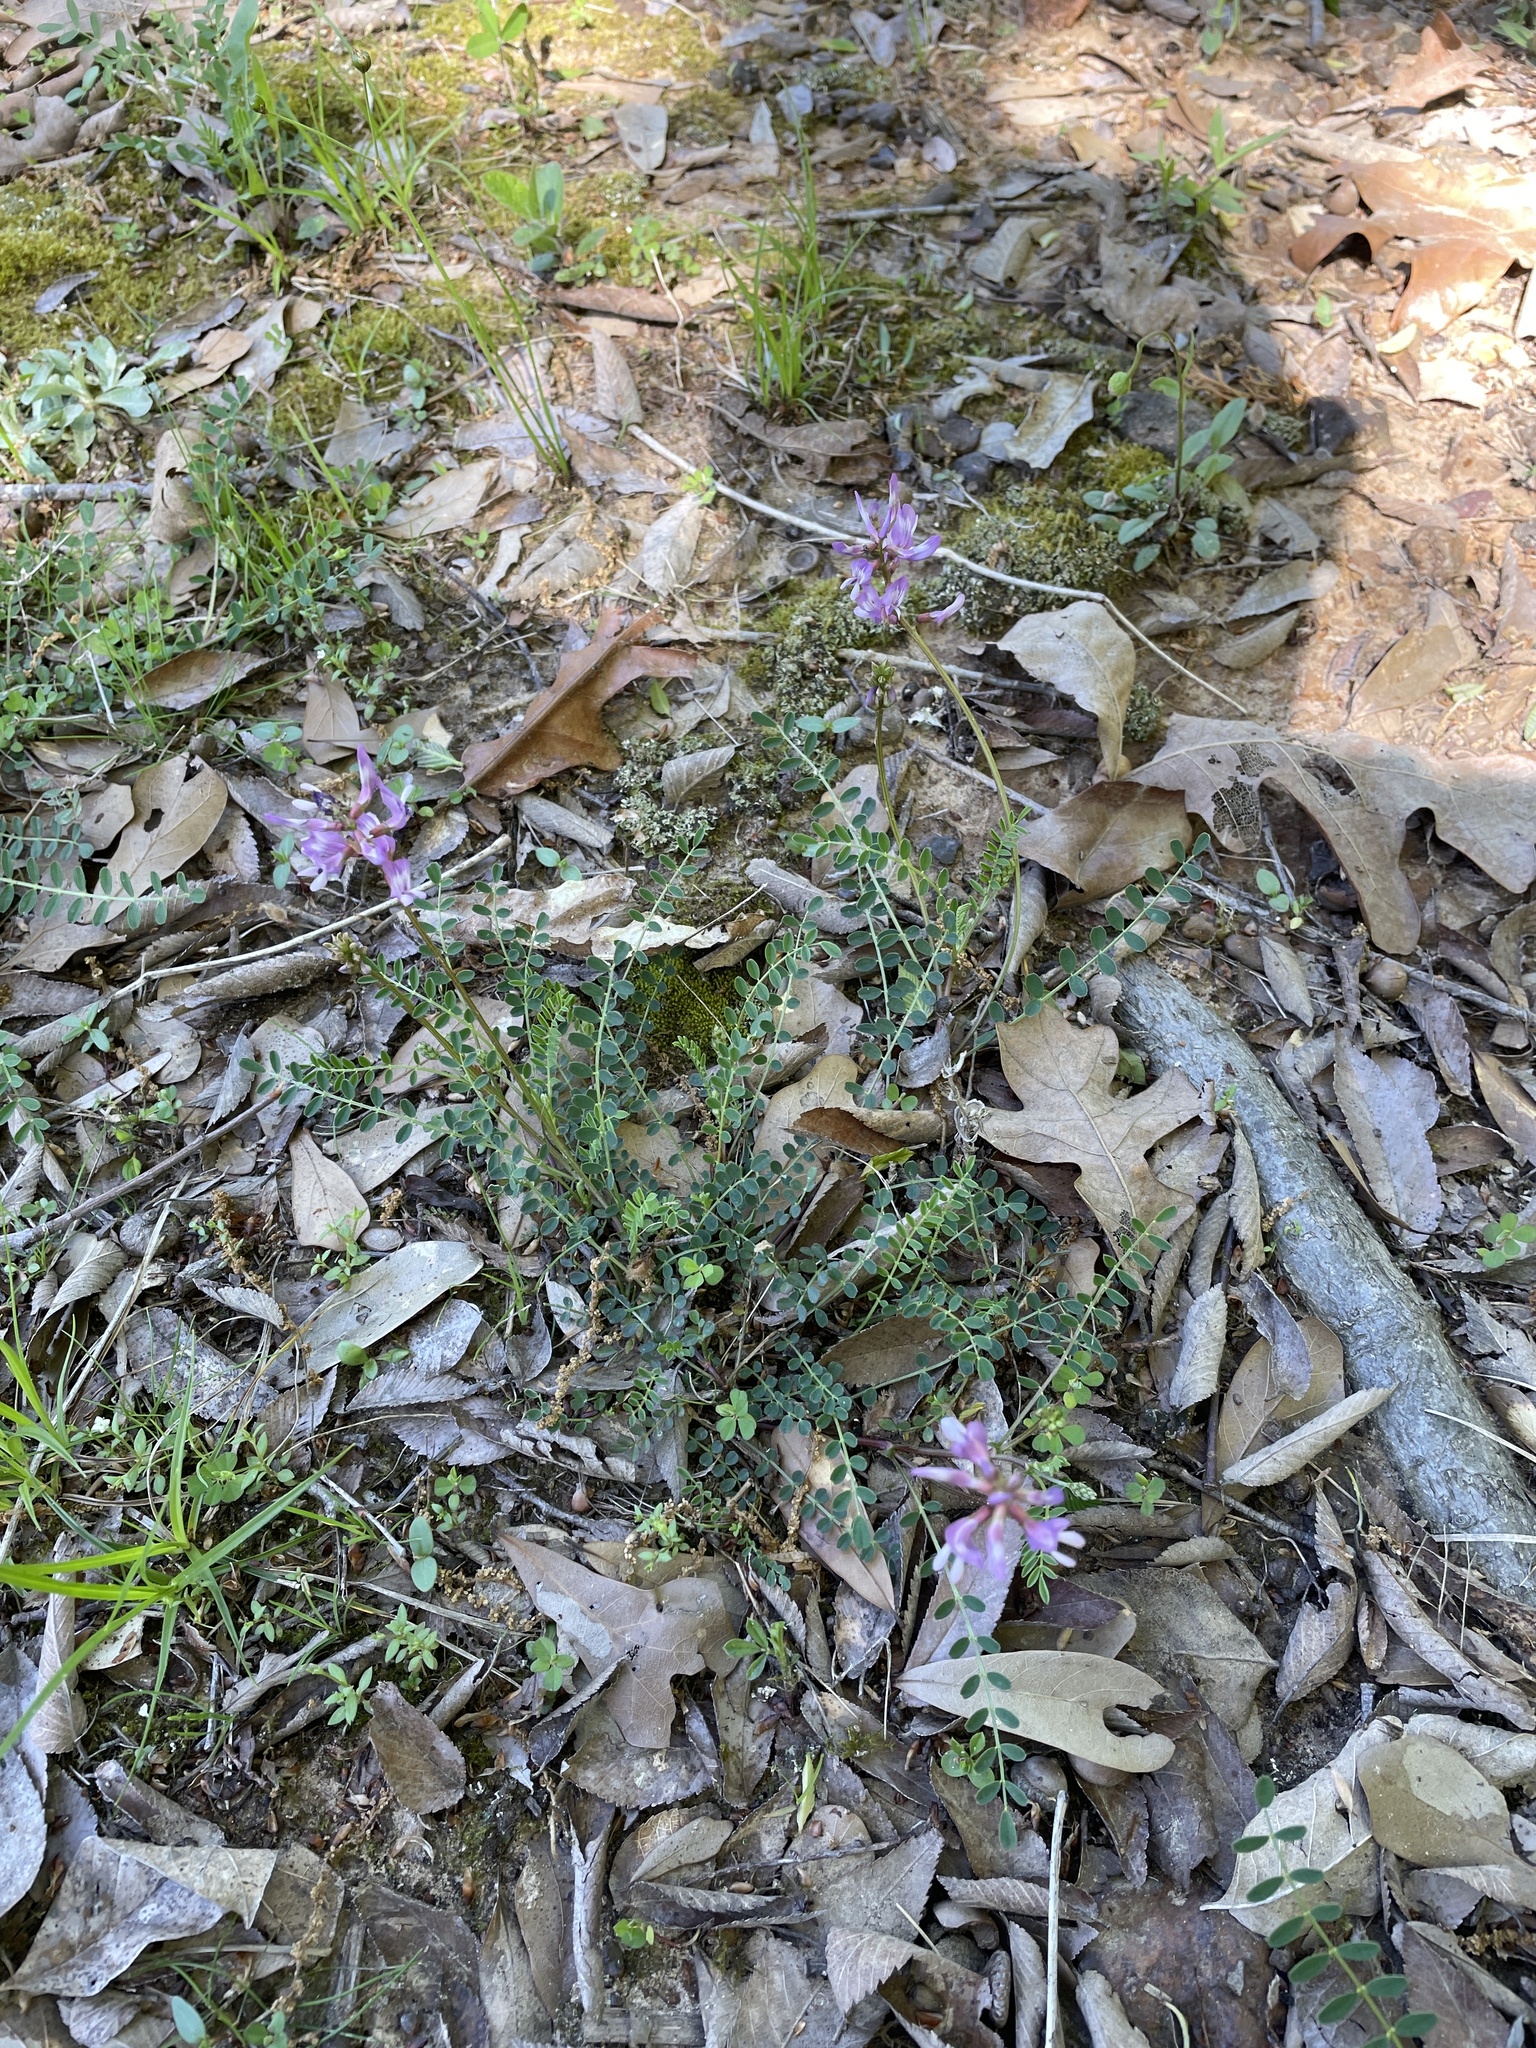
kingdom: Plantae
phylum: Tracheophyta
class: Magnoliopsida
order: Fabales
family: Fabaceae
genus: Astragalus
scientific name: Astragalus distortus
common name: Ozark milk-vetch
